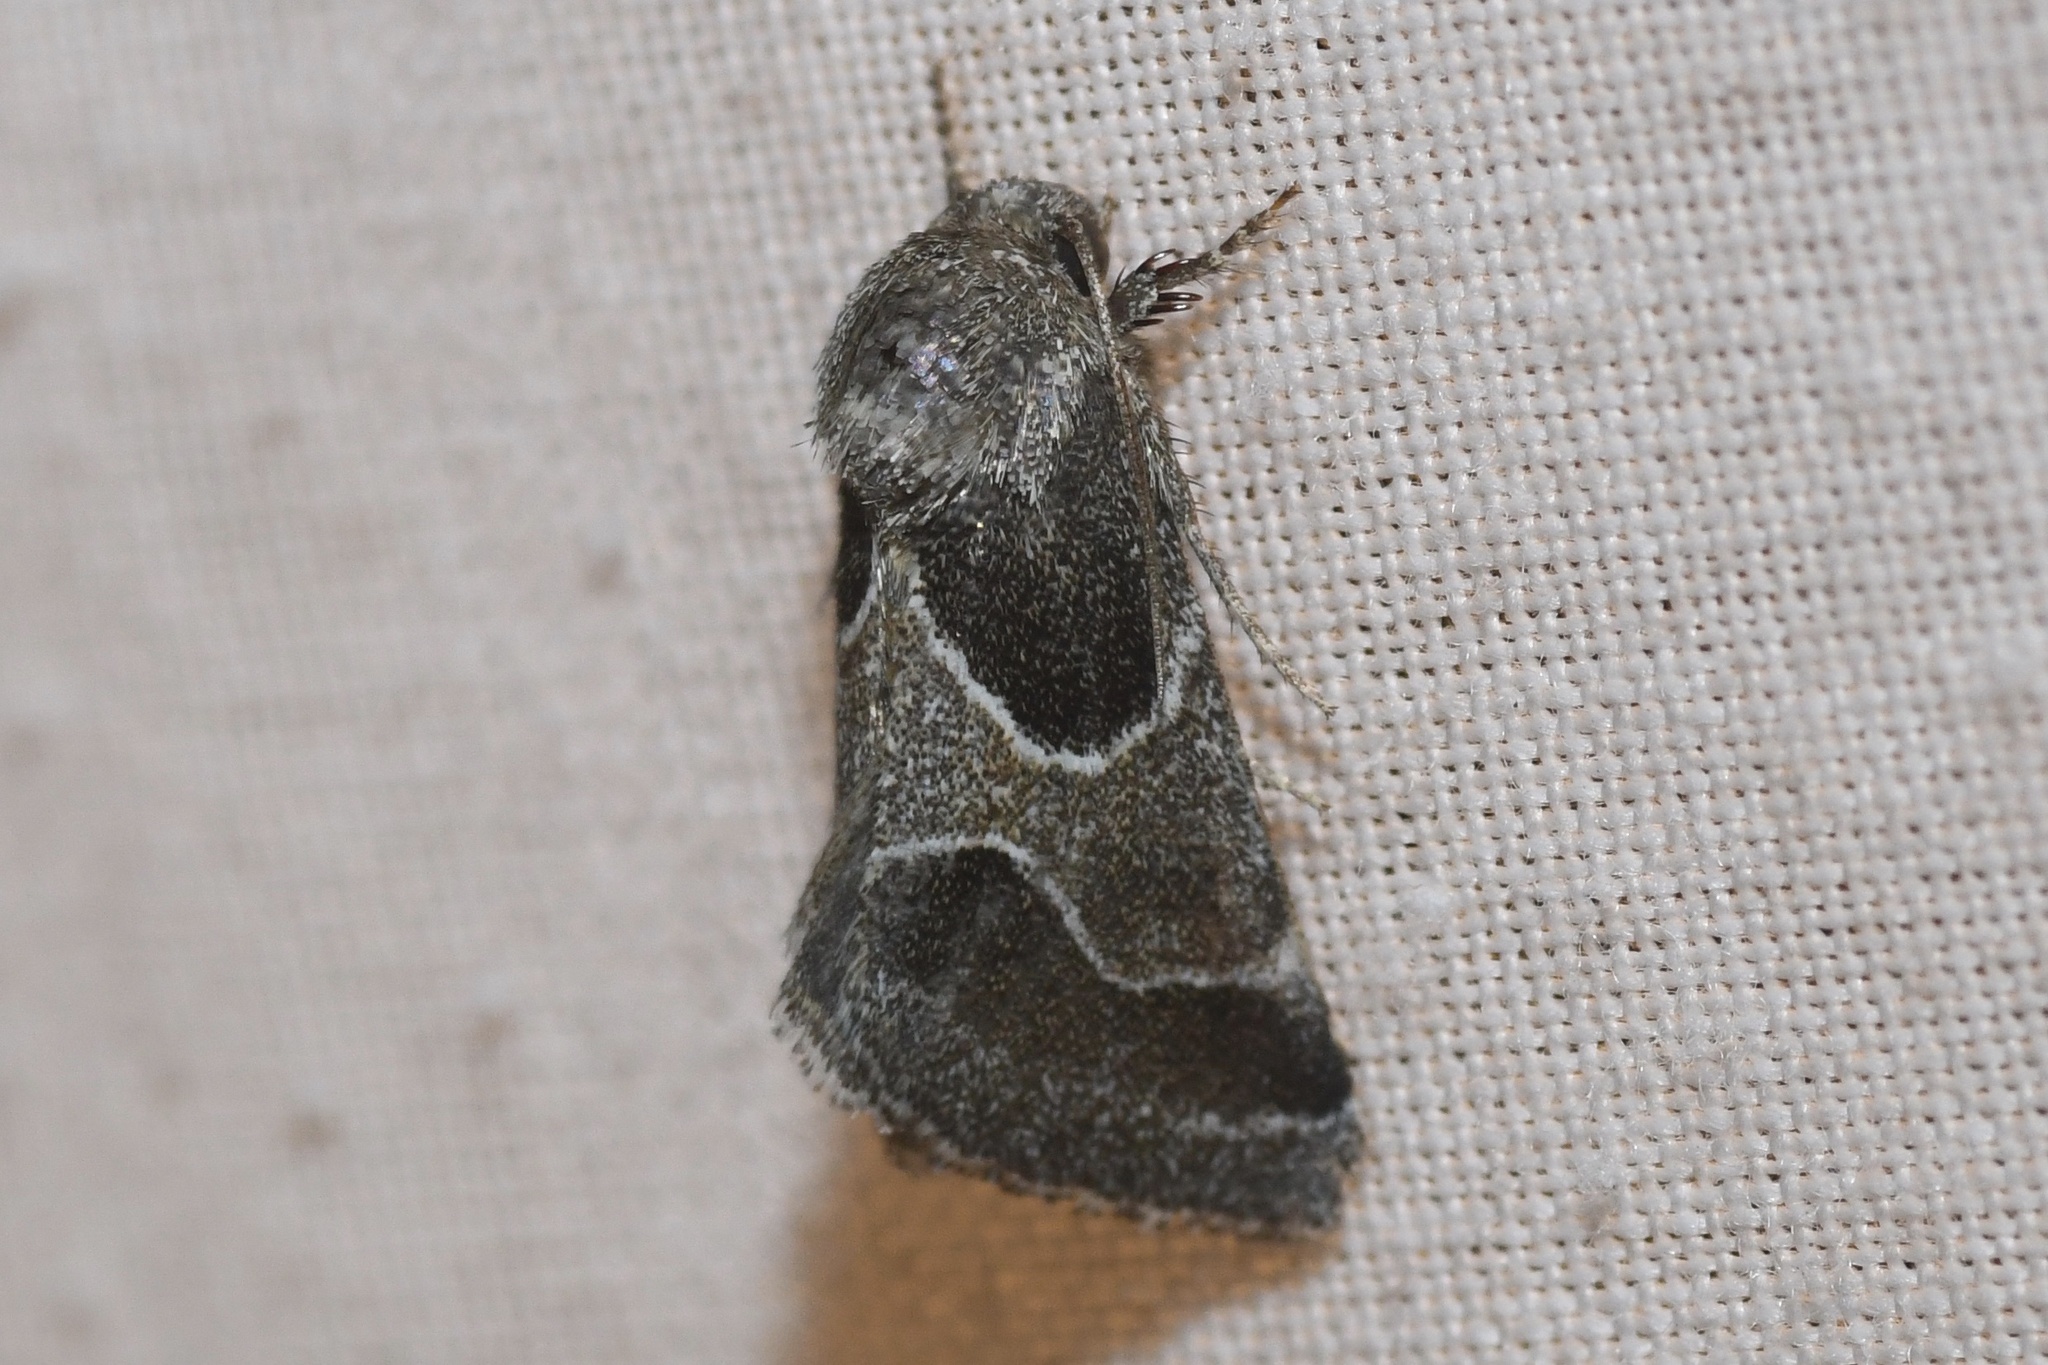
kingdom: Animalia
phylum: Arthropoda
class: Insecta
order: Lepidoptera
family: Noctuidae
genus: Schinia
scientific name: Schinia rivulosa
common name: Scarce meal-moth
